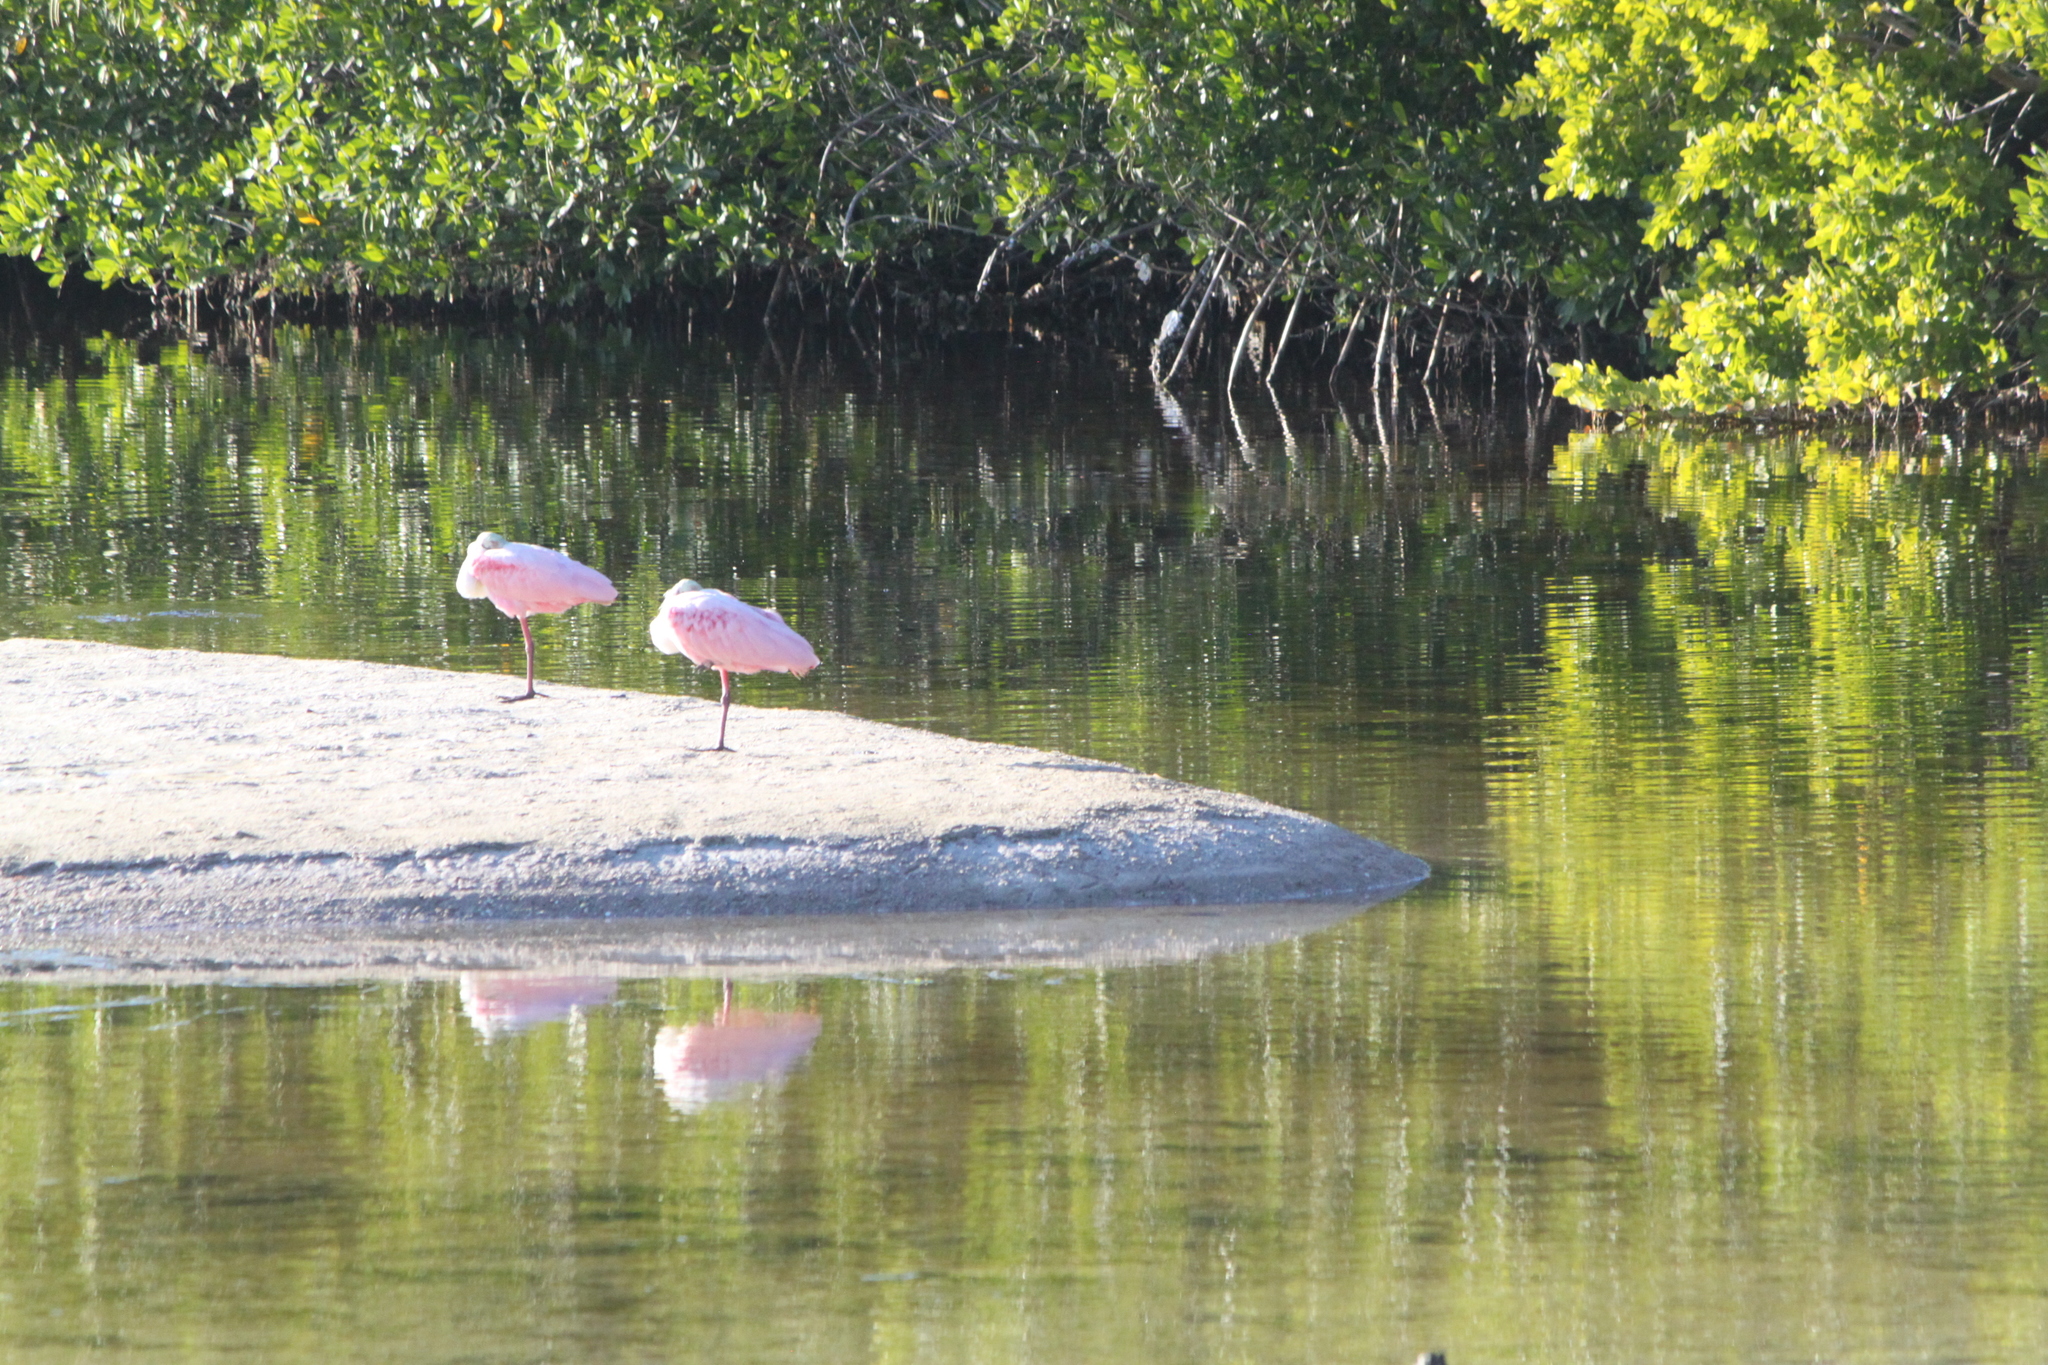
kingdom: Animalia
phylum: Chordata
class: Aves
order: Pelecaniformes
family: Threskiornithidae
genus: Platalea
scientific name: Platalea ajaja
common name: Roseate spoonbill
